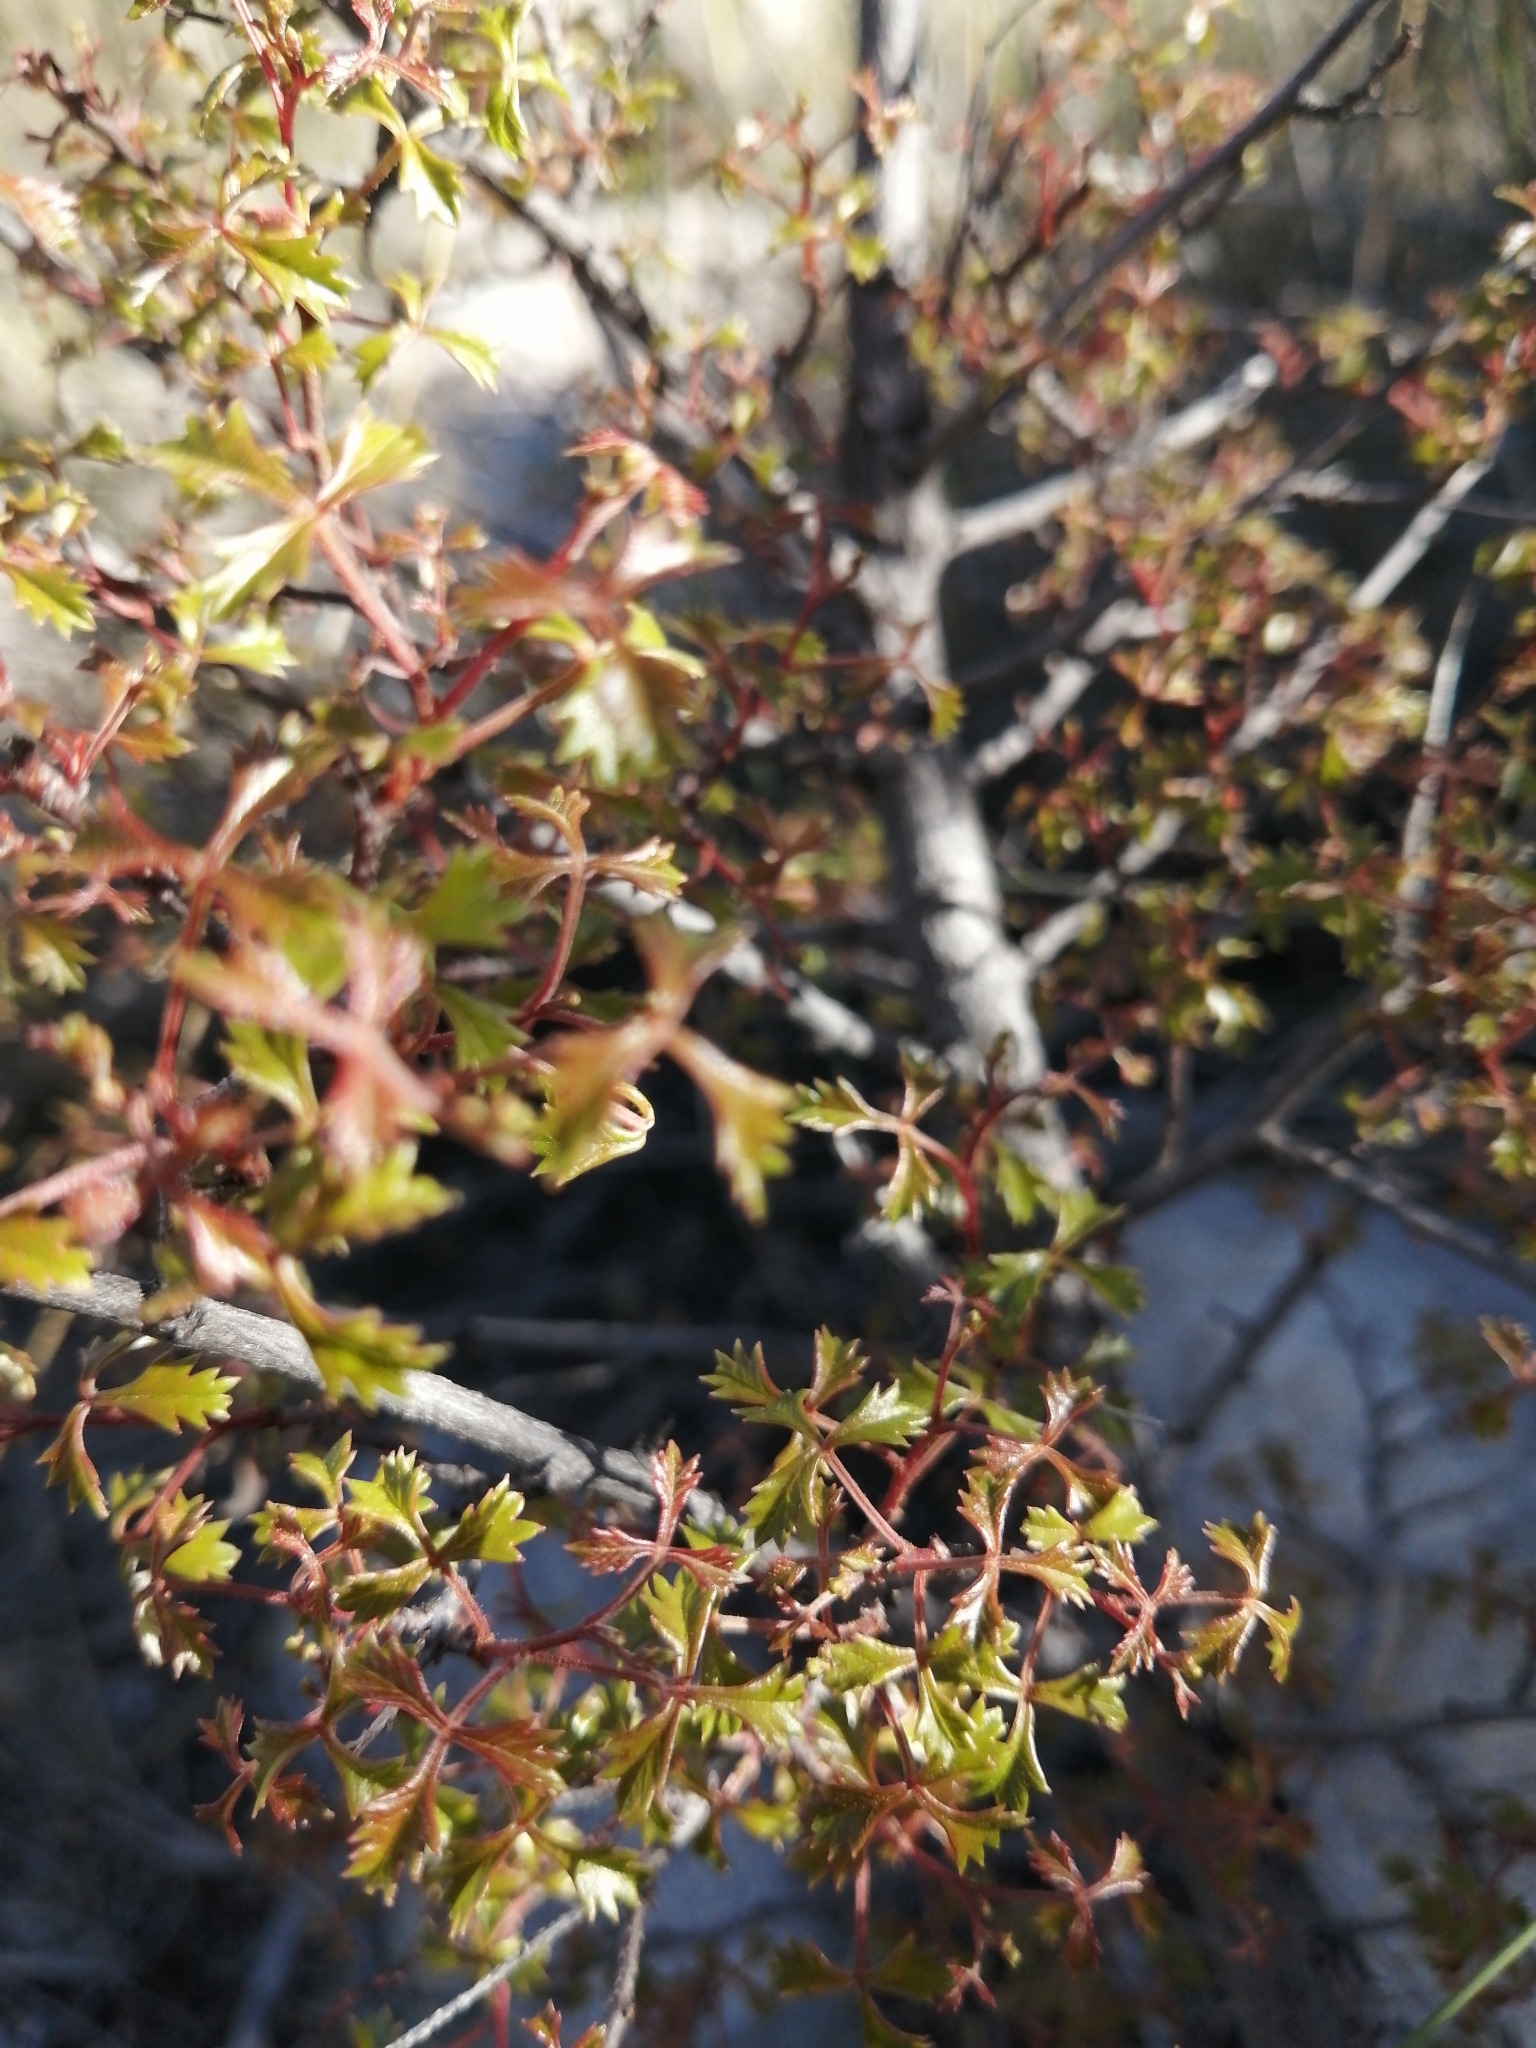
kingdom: Plantae
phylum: Tracheophyta
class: Magnoliopsida
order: Sapindales
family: Anacardiaceae
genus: Searsia
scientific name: Searsia dissecta
